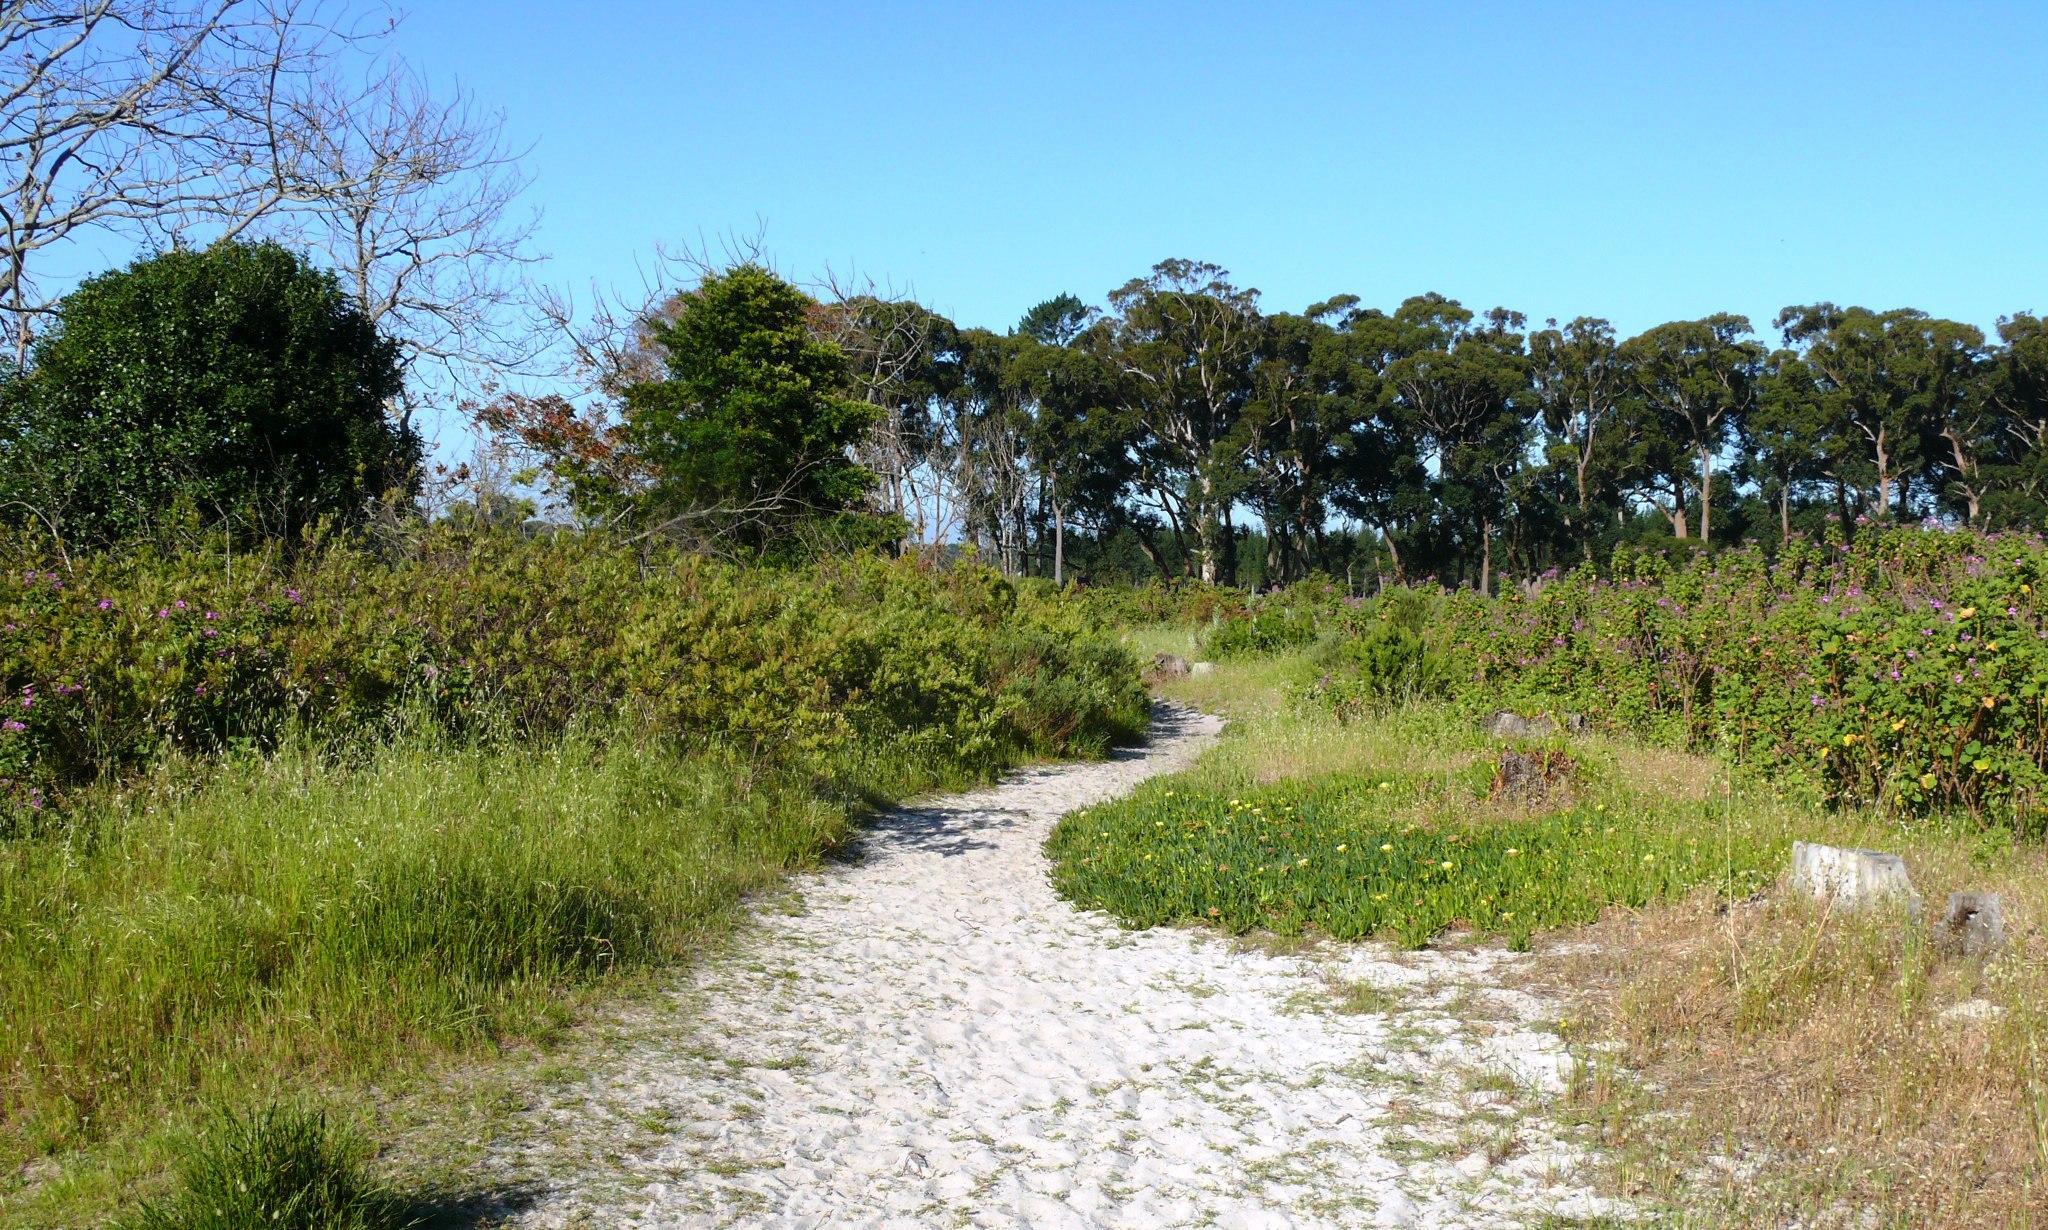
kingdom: Plantae
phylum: Tracheophyta
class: Magnoliopsida
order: Geraniales
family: Geraniaceae
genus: Pelargonium
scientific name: Pelargonium cucullatum
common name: Tree pelargonium
